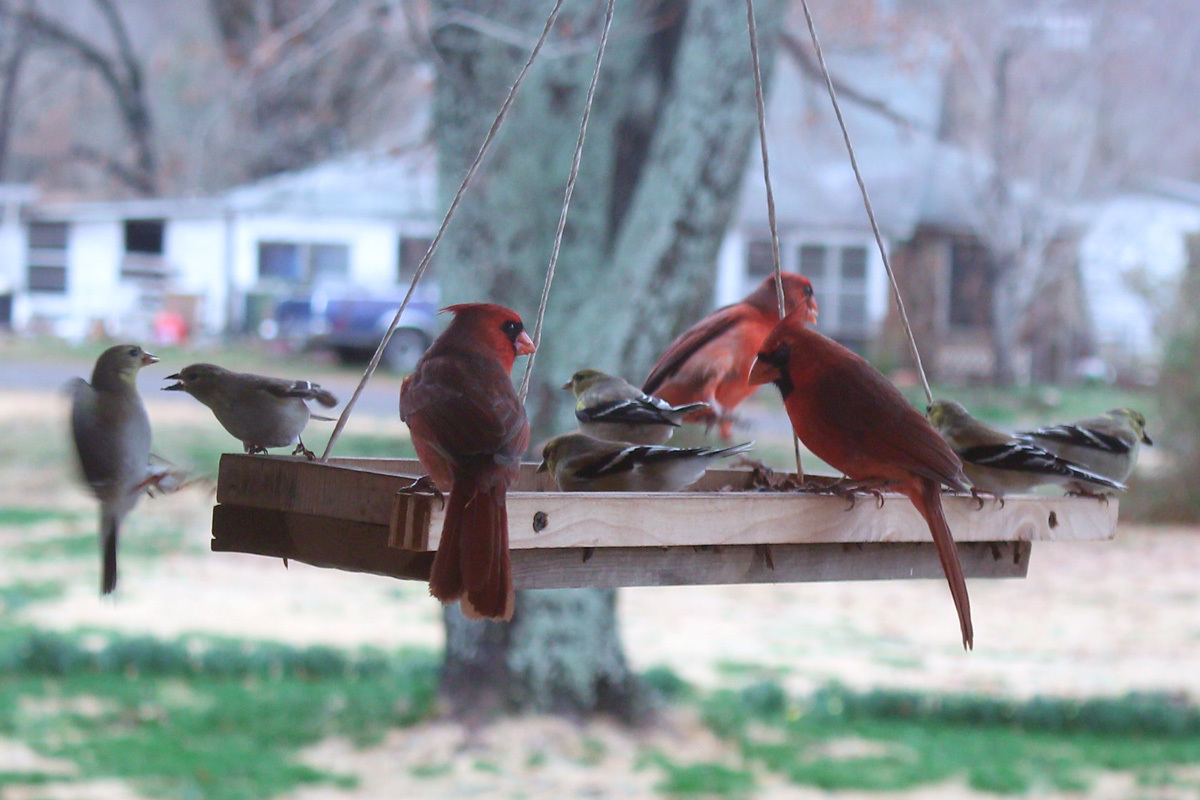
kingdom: Animalia
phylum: Chordata
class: Aves
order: Passeriformes
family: Cardinalidae
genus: Cardinalis
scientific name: Cardinalis cardinalis
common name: Northern cardinal
